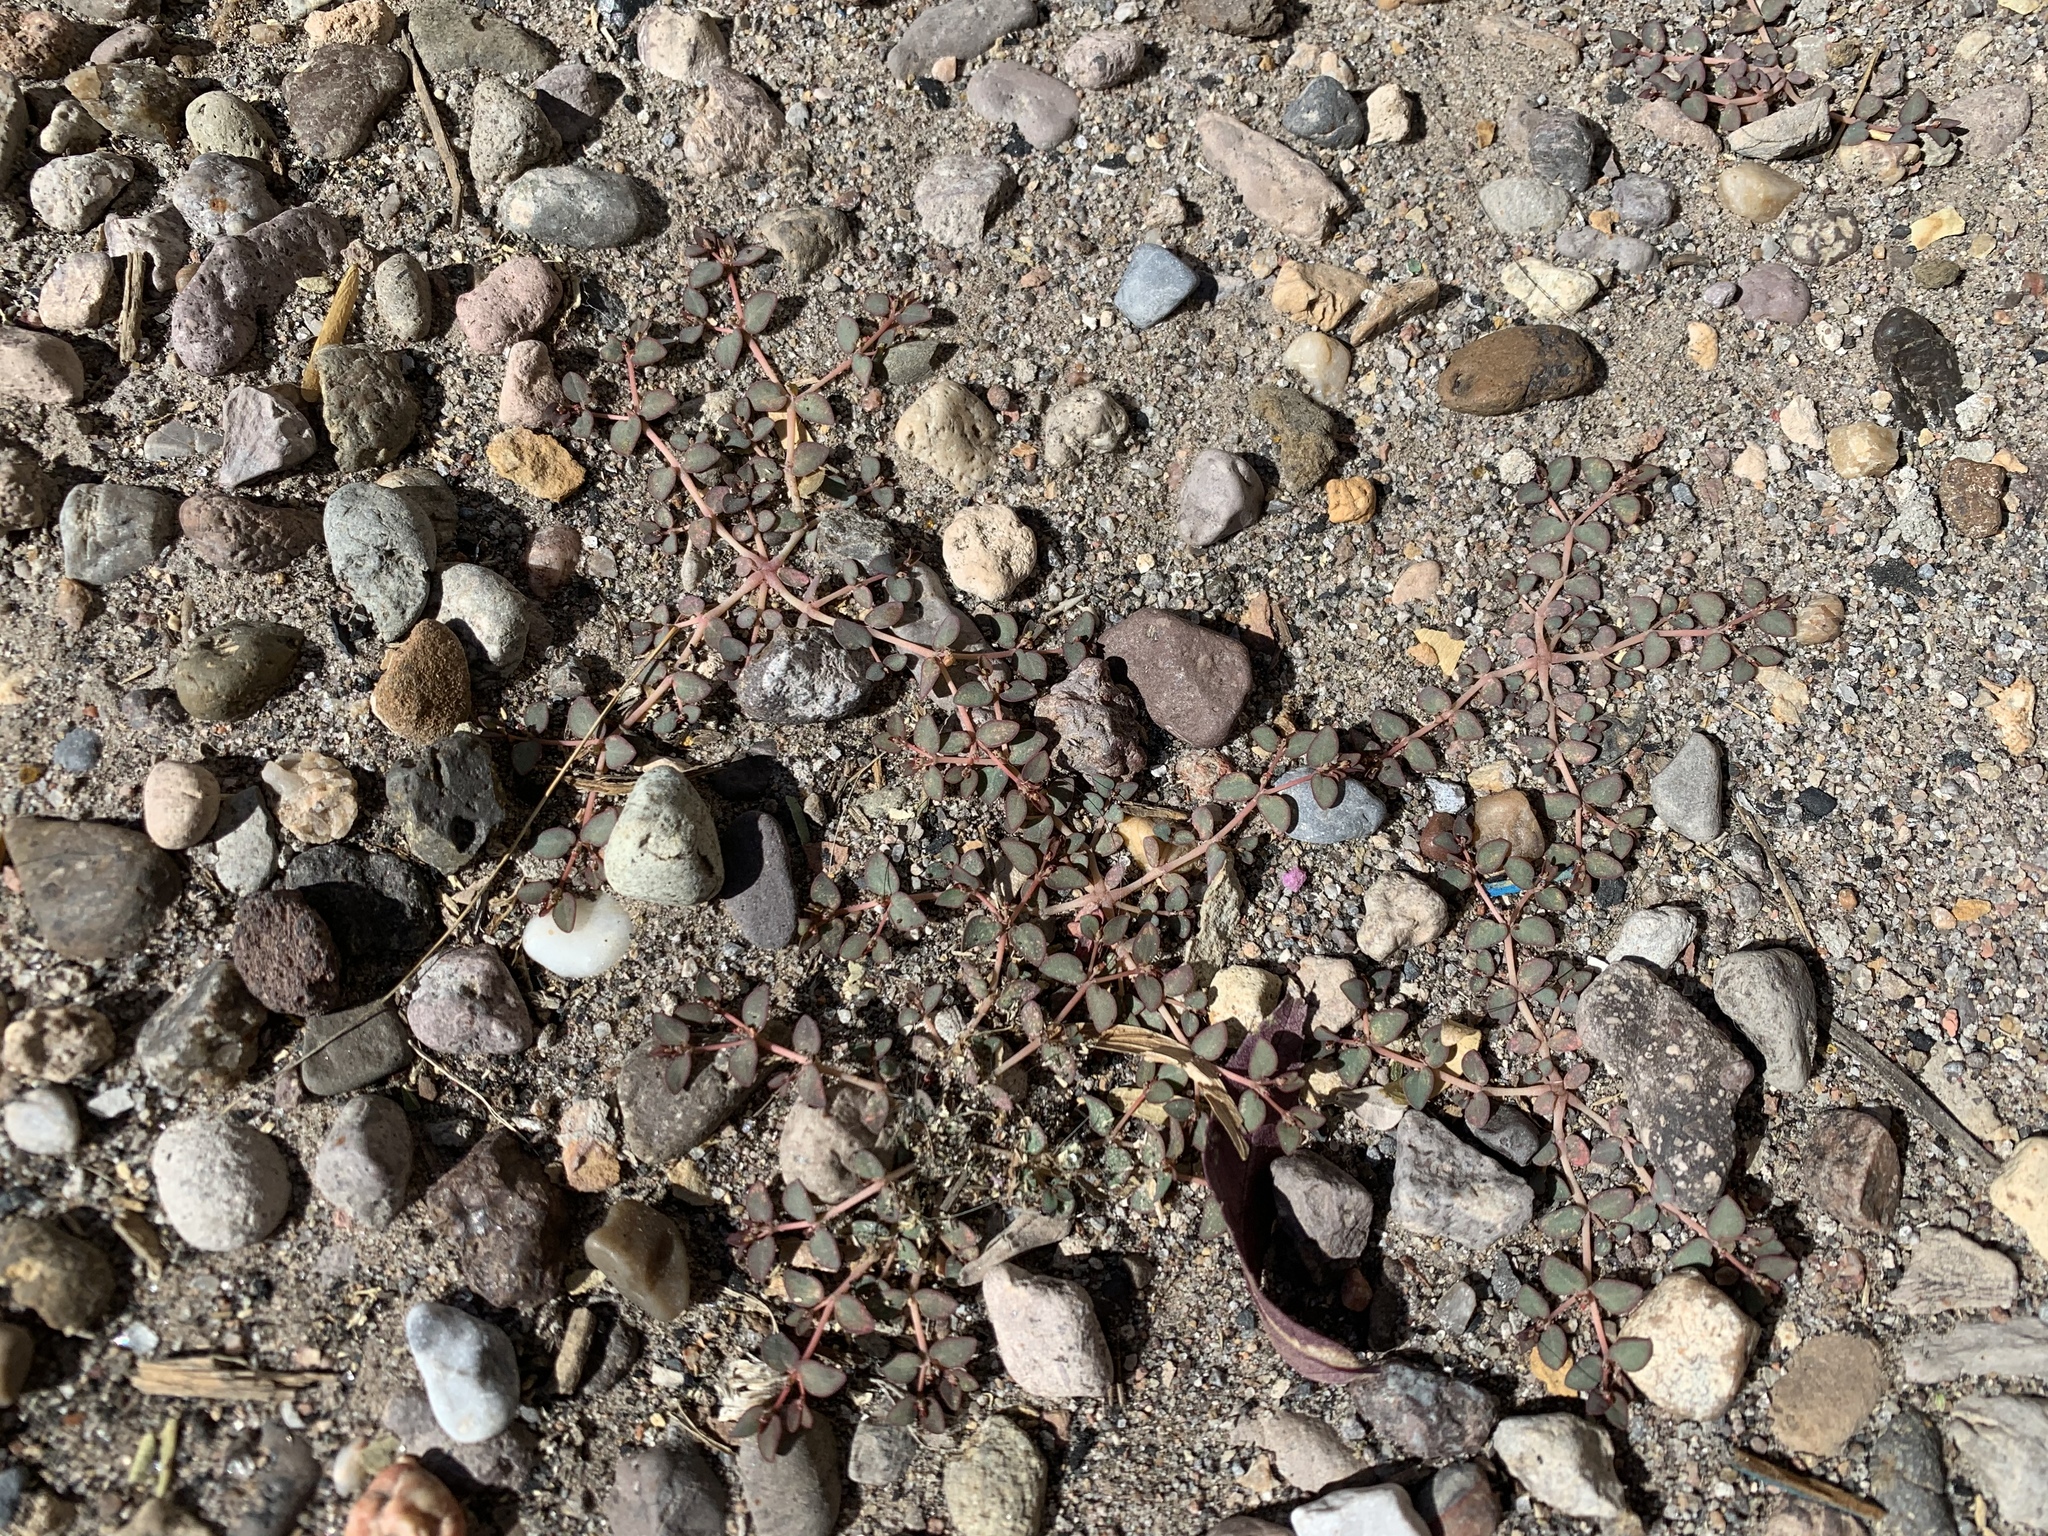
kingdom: Plantae
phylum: Tracheophyta
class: Magnoliopsida
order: Malpighiales
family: Euphorbiaceae
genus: Euphorbia
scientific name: Euphorbia micromera
